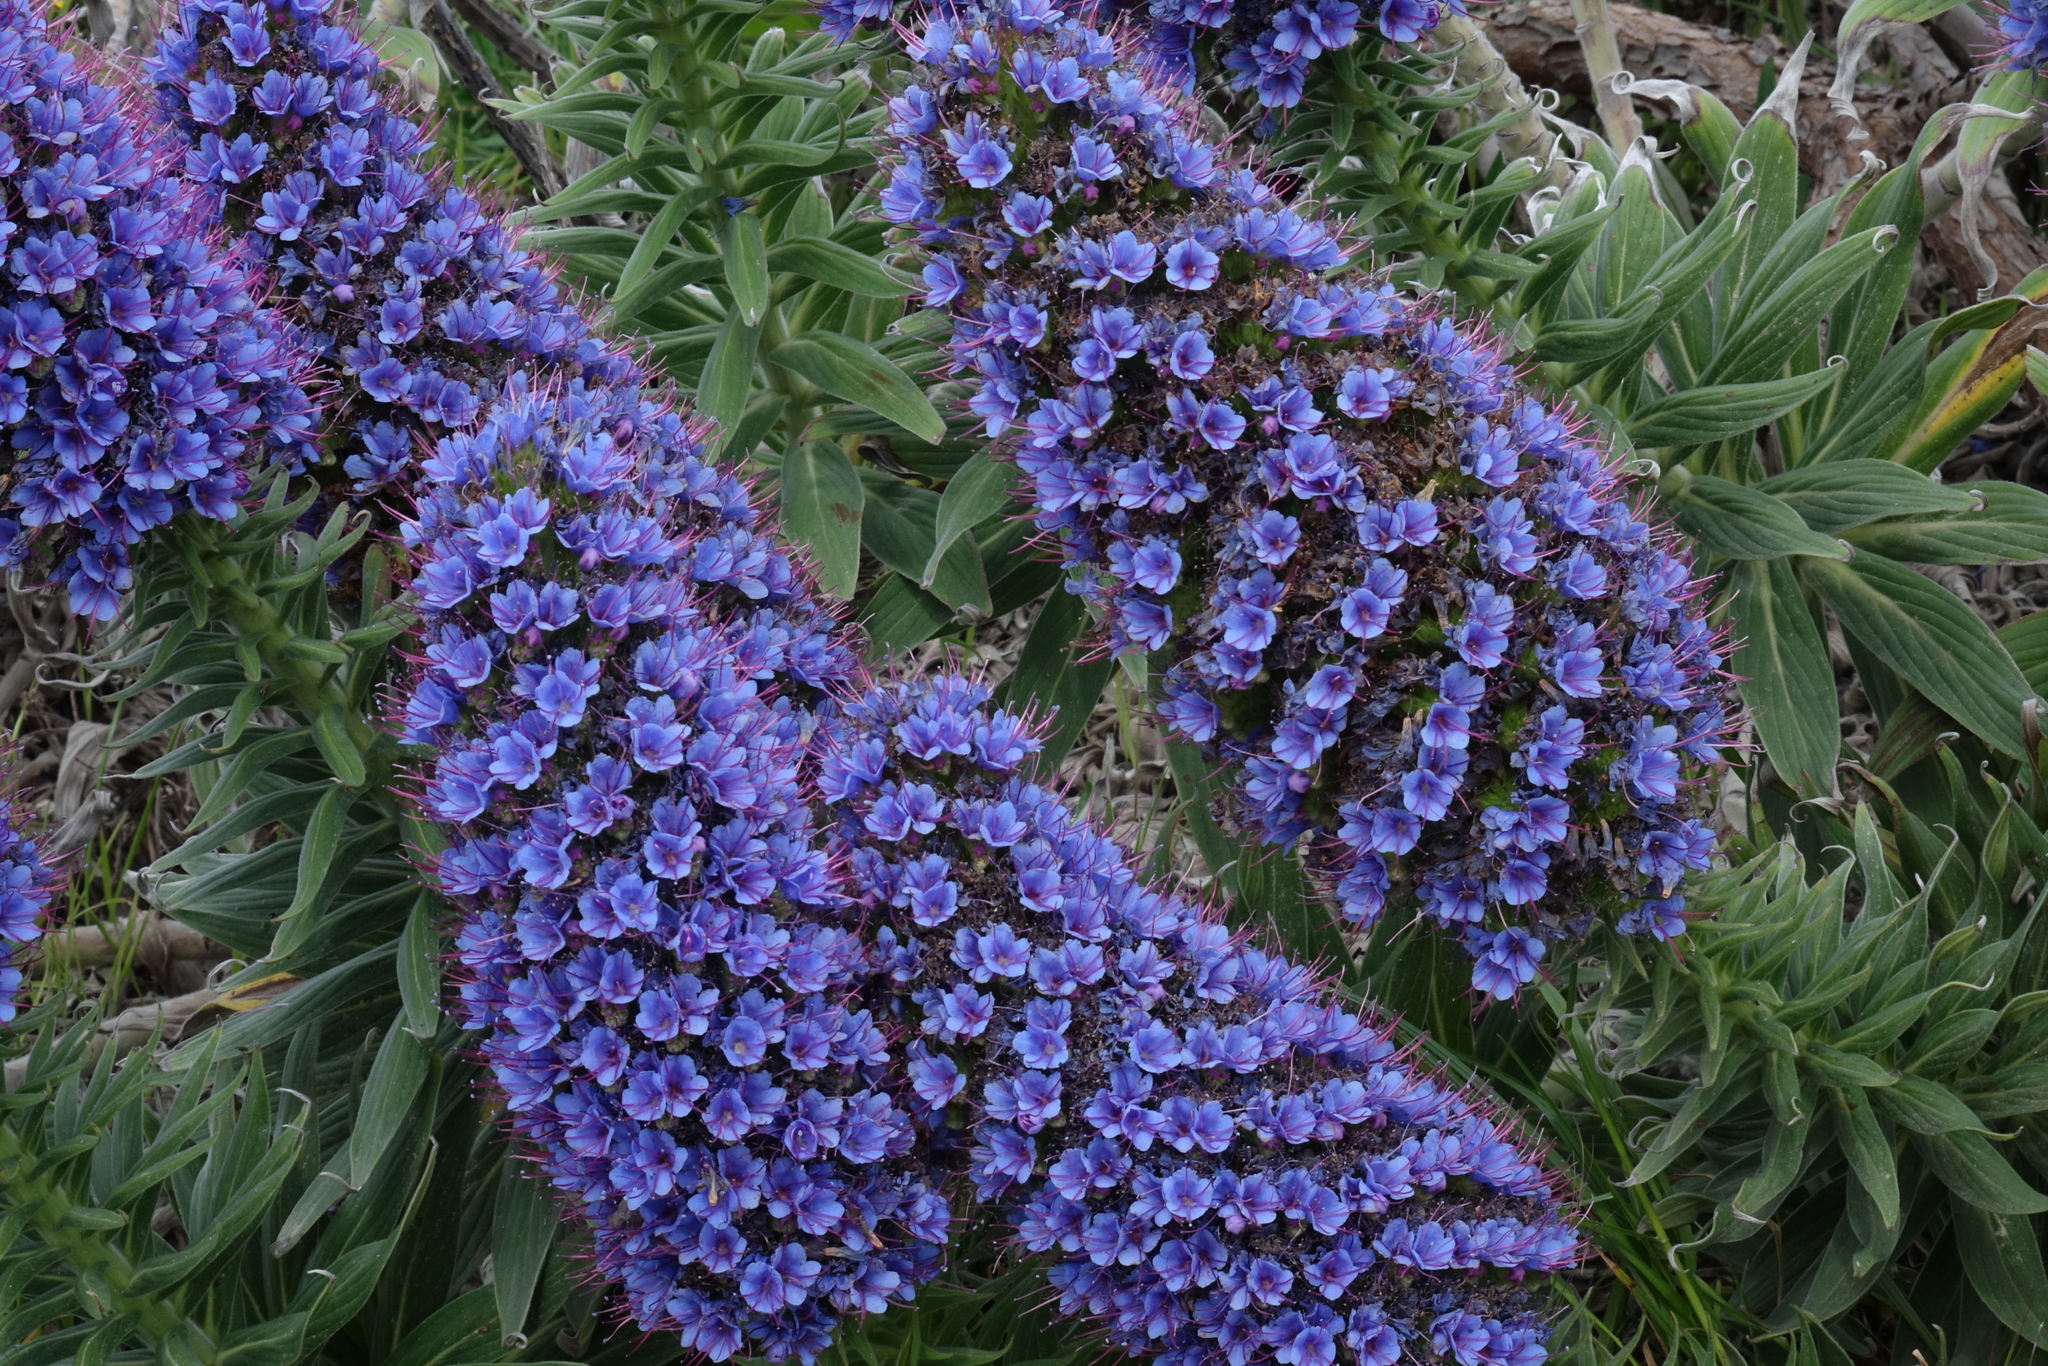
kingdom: Plantae
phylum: Tracheophyta
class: Magnoliopsida
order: Boraginales
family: Boraginaceae
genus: Echium
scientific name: Echium candicans
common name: Pride of madeira
